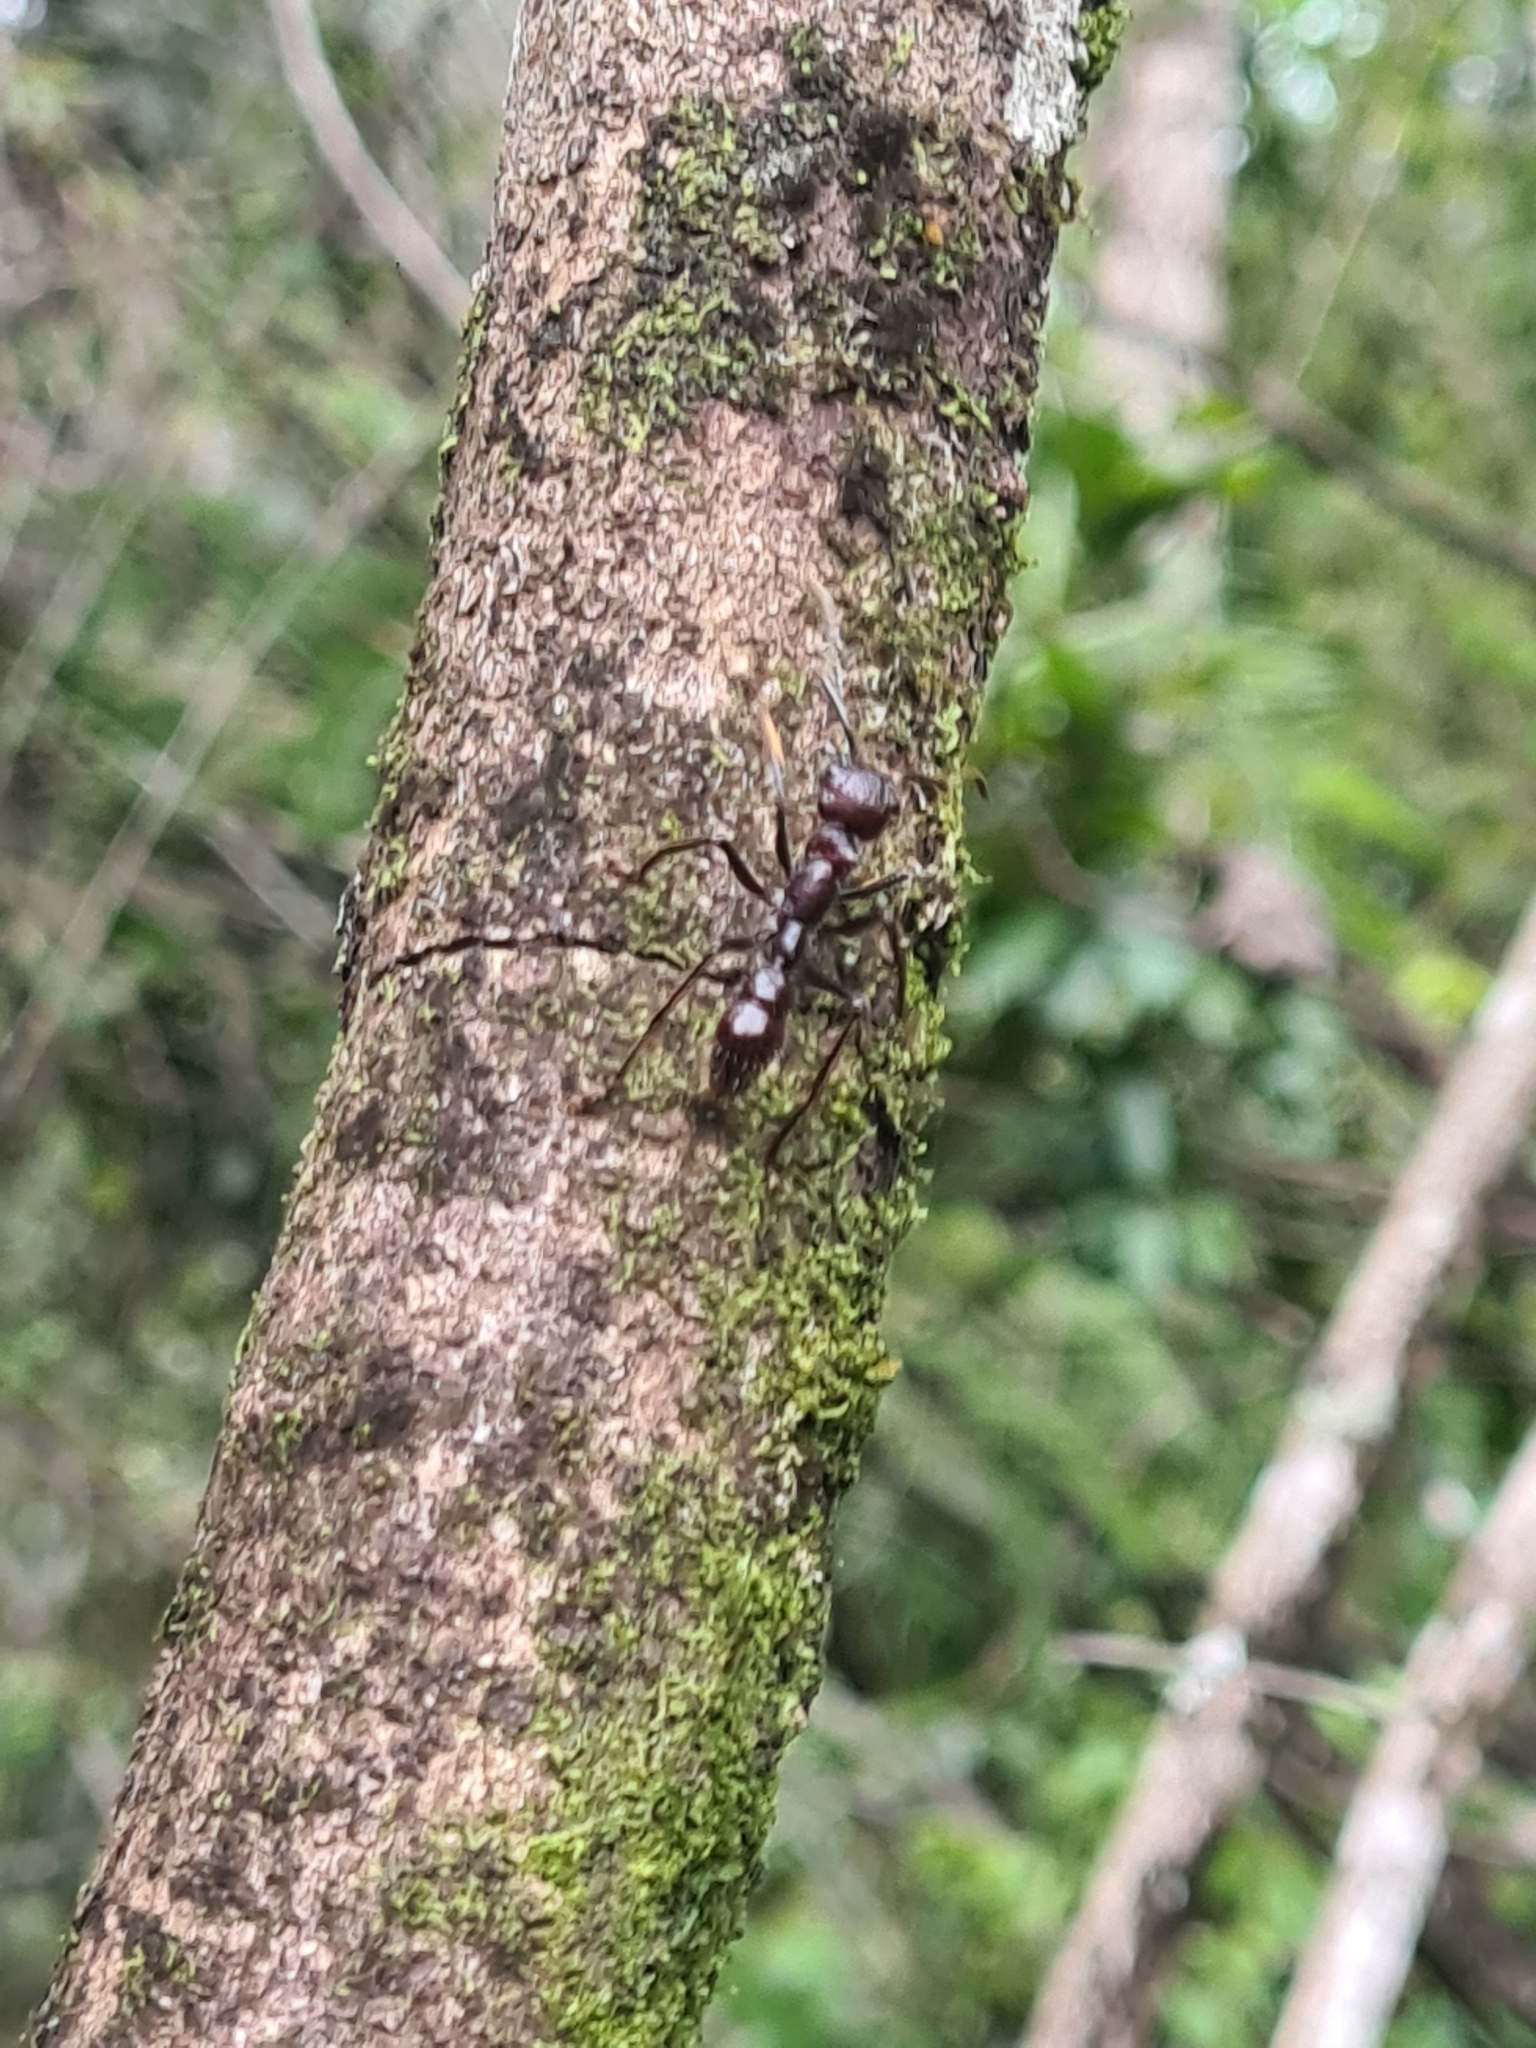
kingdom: Animalia
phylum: Arthropoda
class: Insecta
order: Hymenoptera
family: Formicidae
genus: Paraponera
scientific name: Paraponera clavata
